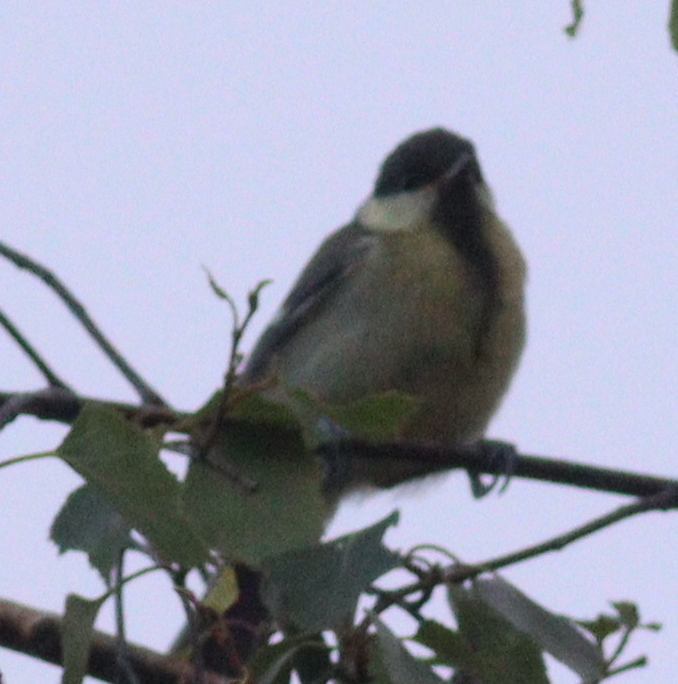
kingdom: Animalia
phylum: Chordata
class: Aves
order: Passeriformes
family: Paridae
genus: Parus
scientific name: Parus major
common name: Great tit
